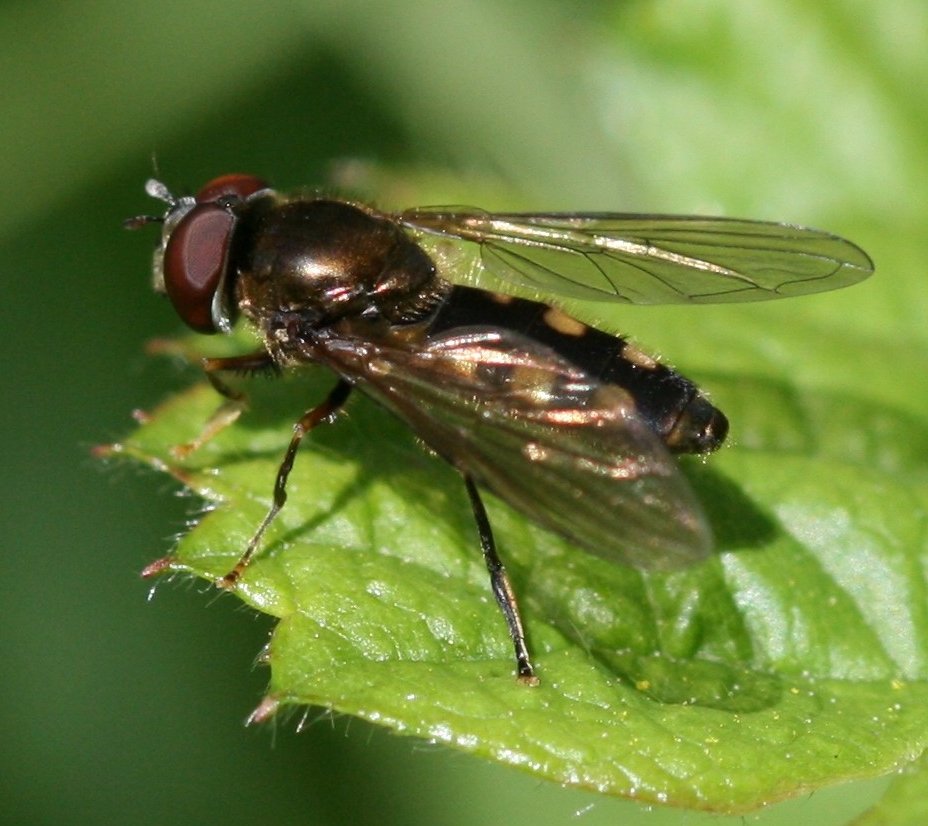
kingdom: Animalia
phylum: Arthropoda
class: Insecta
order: Diptera
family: Syrphidae
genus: Platycheirus
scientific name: Platycheirus peltatus
